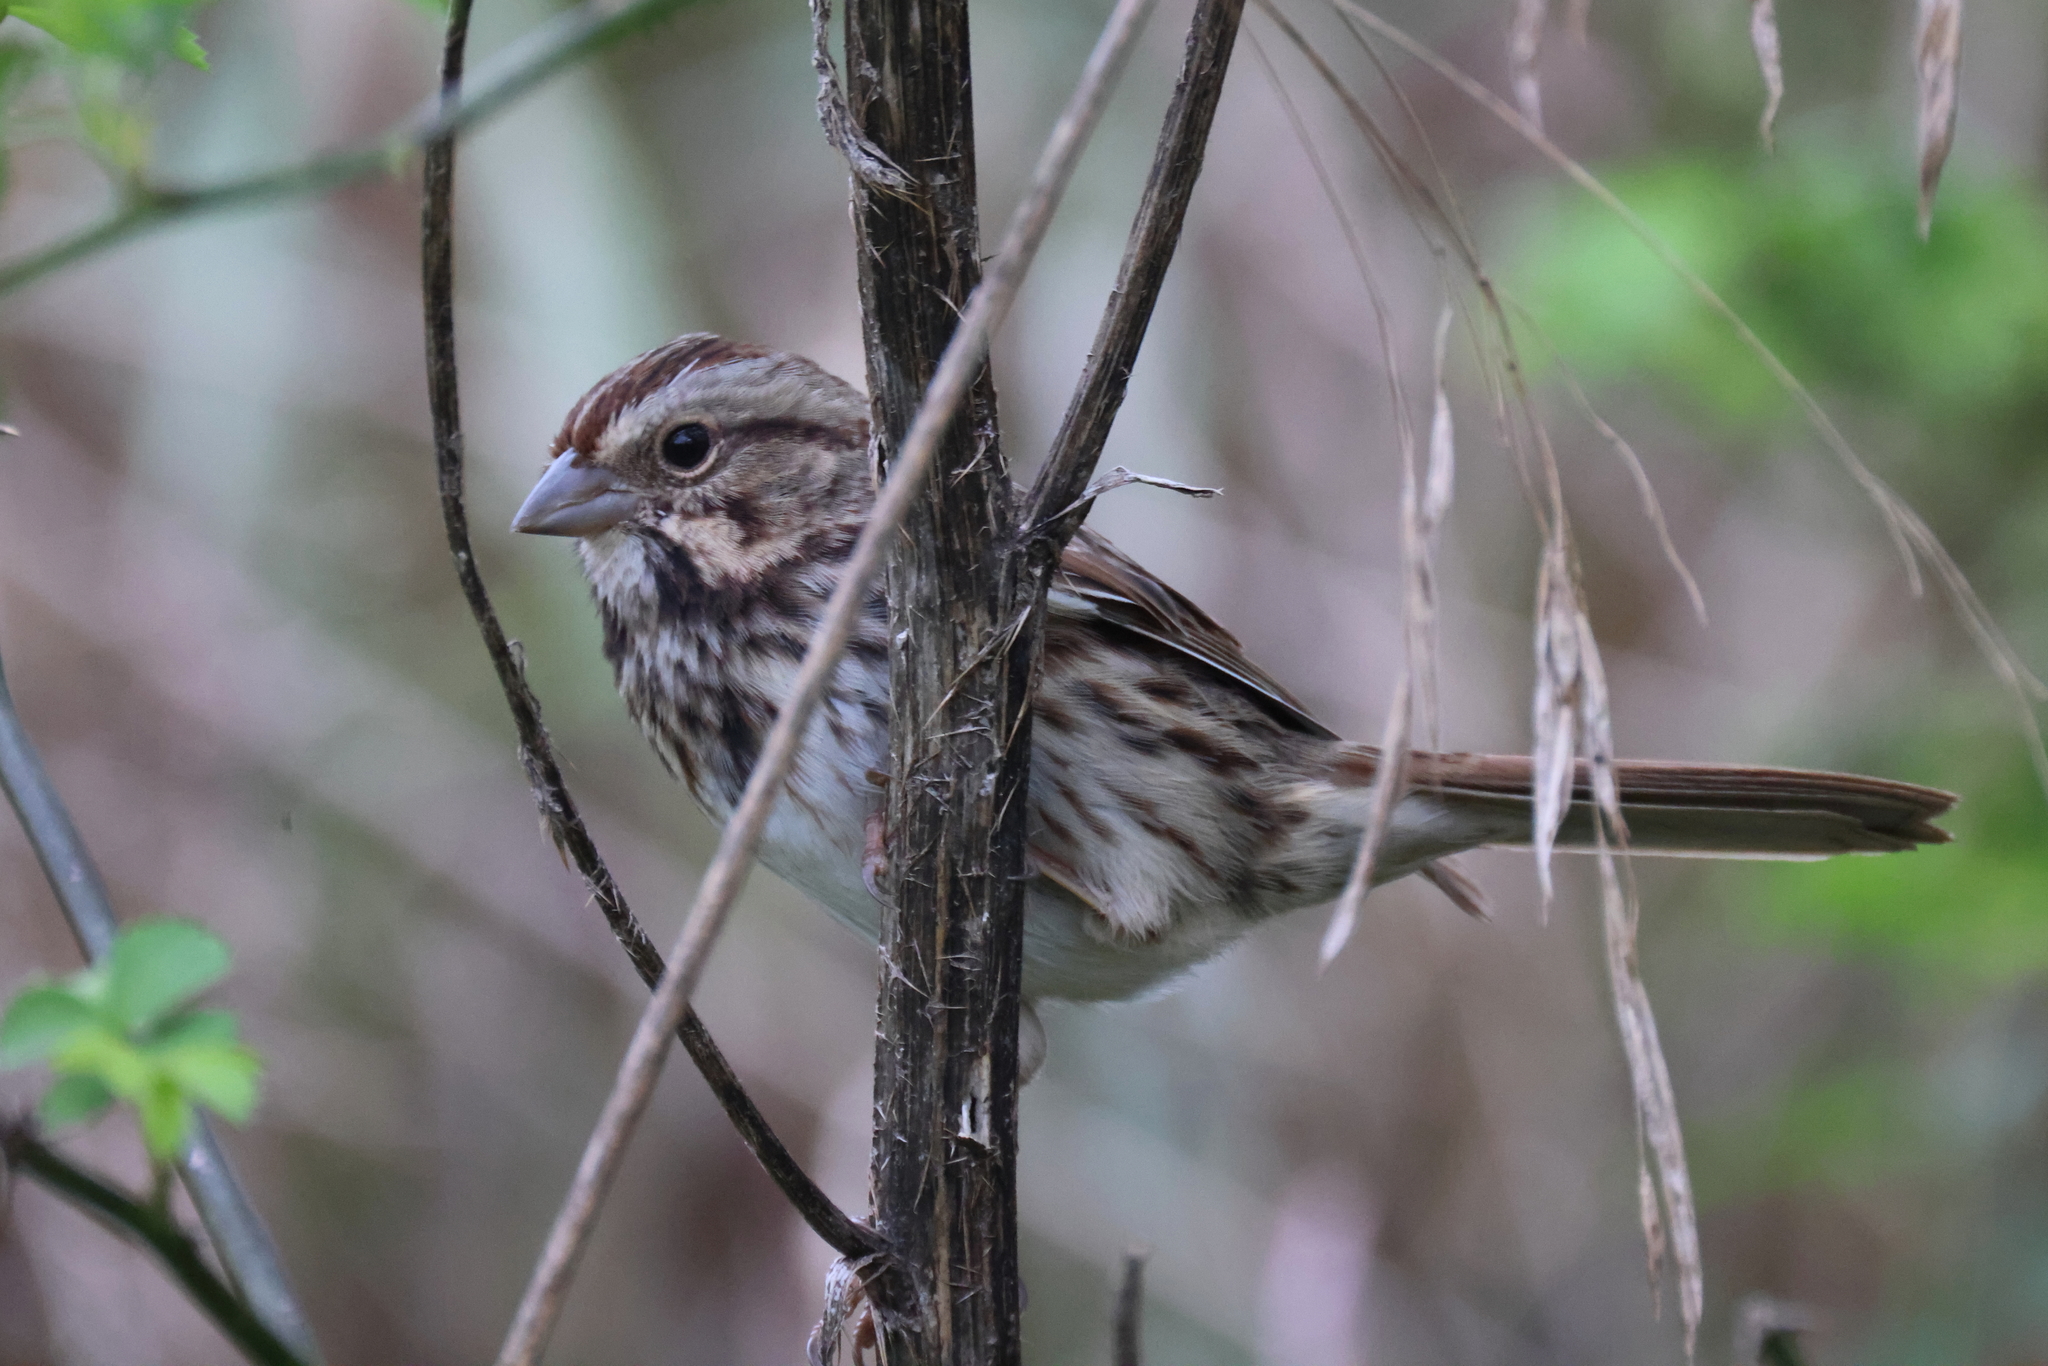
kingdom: Animalia
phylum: Chordata
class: Aves
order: Passeriformes
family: Passerellidae
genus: Melospiza
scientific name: Melospiza melodia
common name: Song sparrow
